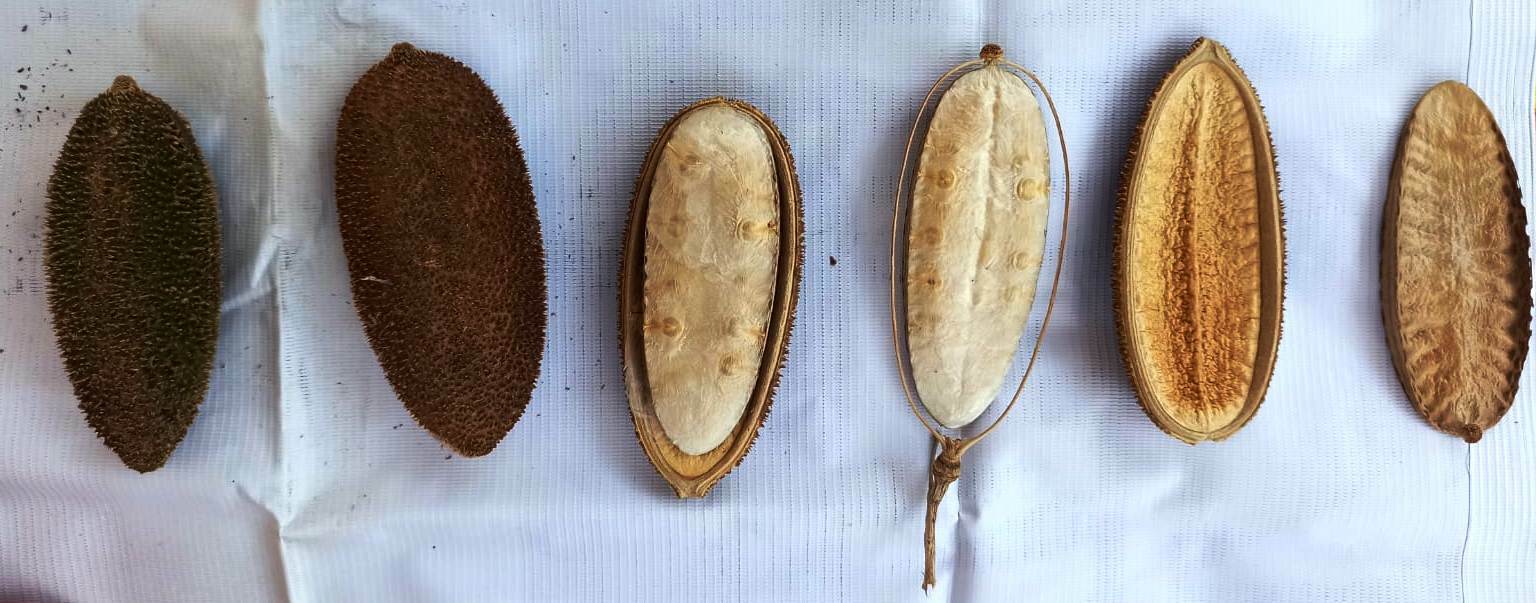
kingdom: Plantae
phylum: Tracheophyta
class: Magnoliopsida
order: Lamiales
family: Bignoniaceae
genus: Amphilophium
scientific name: Amphilophium crucigerum
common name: Monkey comb
